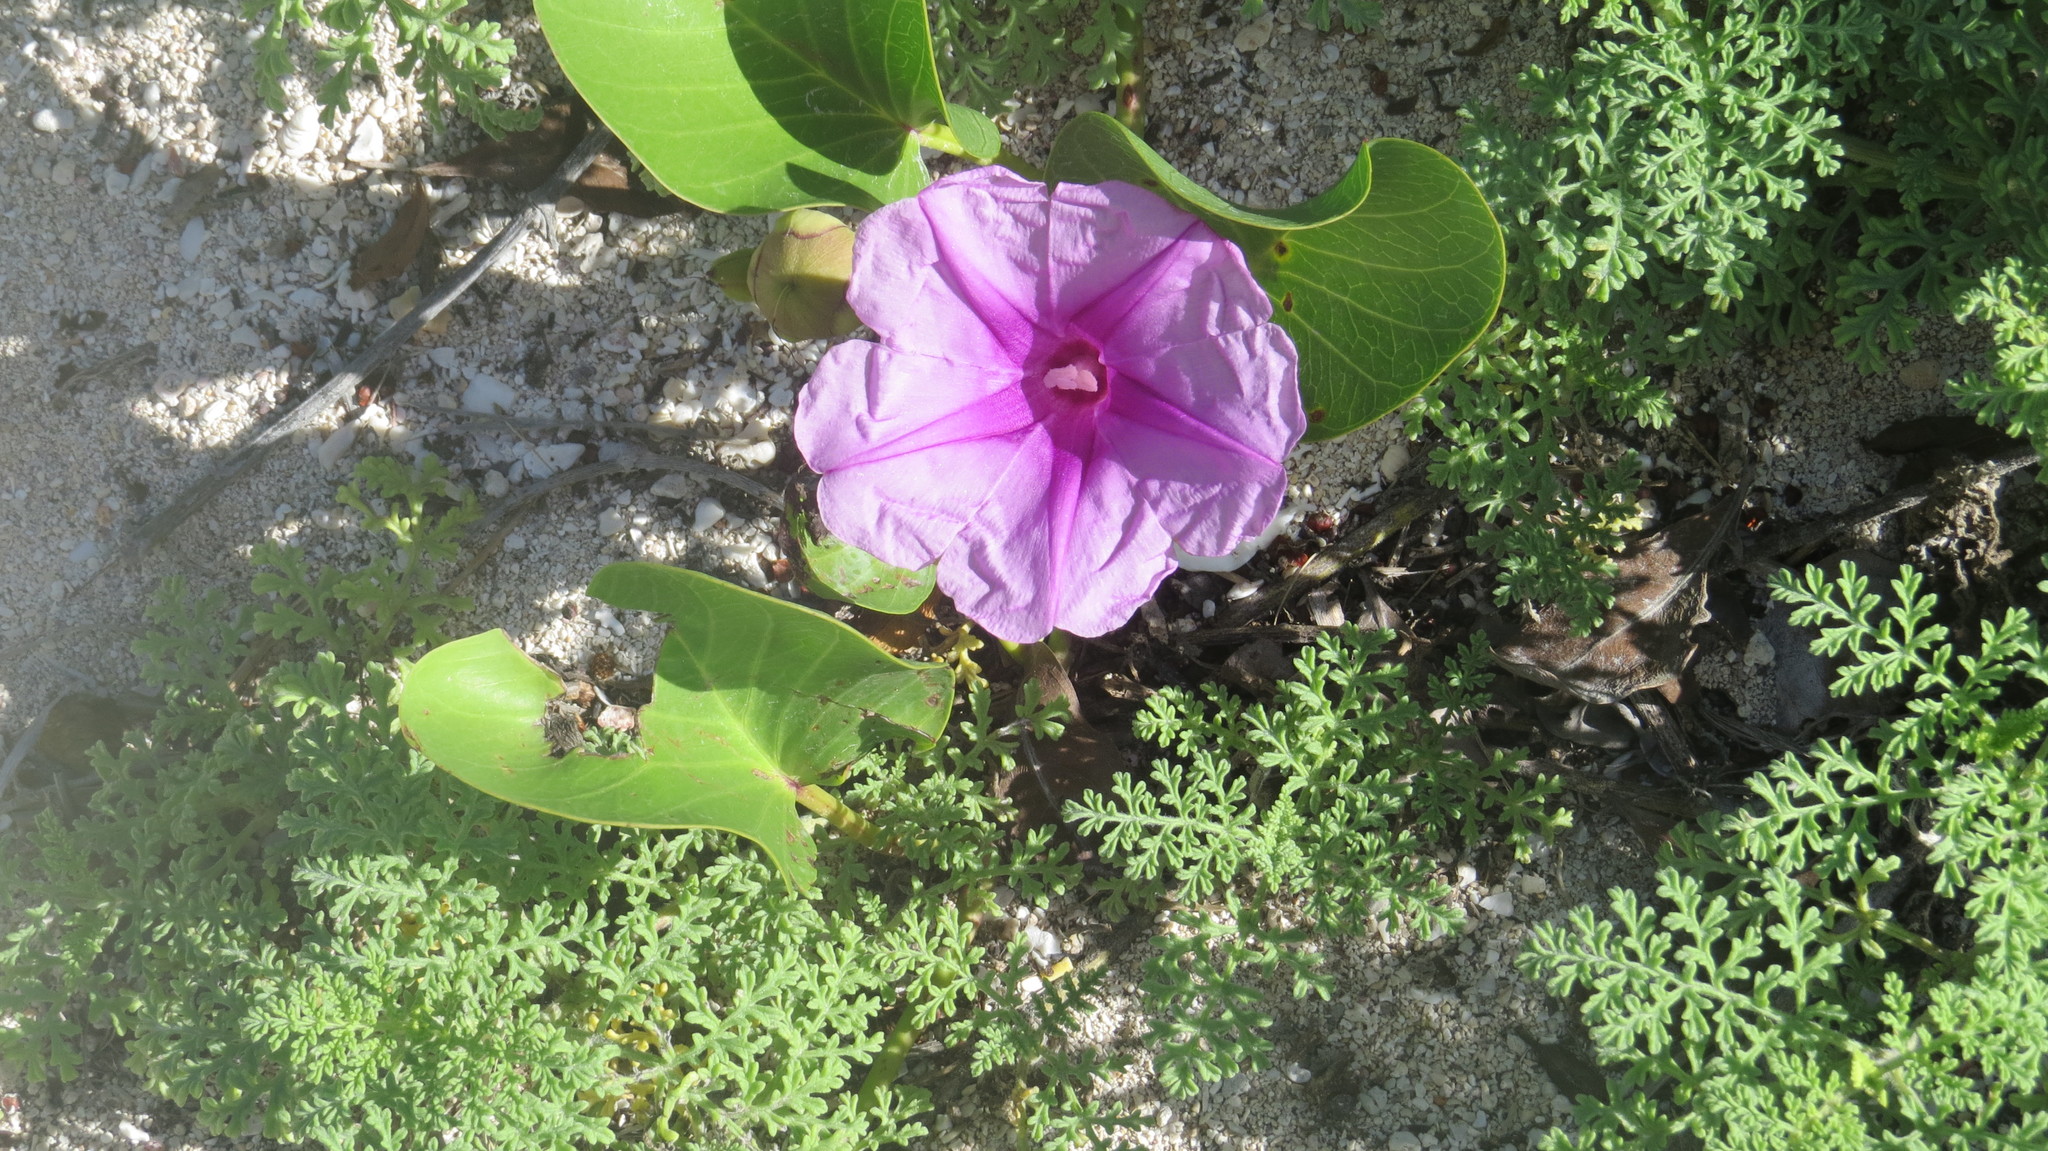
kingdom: Plantae
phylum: Tracheophyta
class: Magnoliopsida
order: Solanales
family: Convolvulaceae
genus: Ipomoea
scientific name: Ipomoea pes-caprae
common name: Beach morning glory
